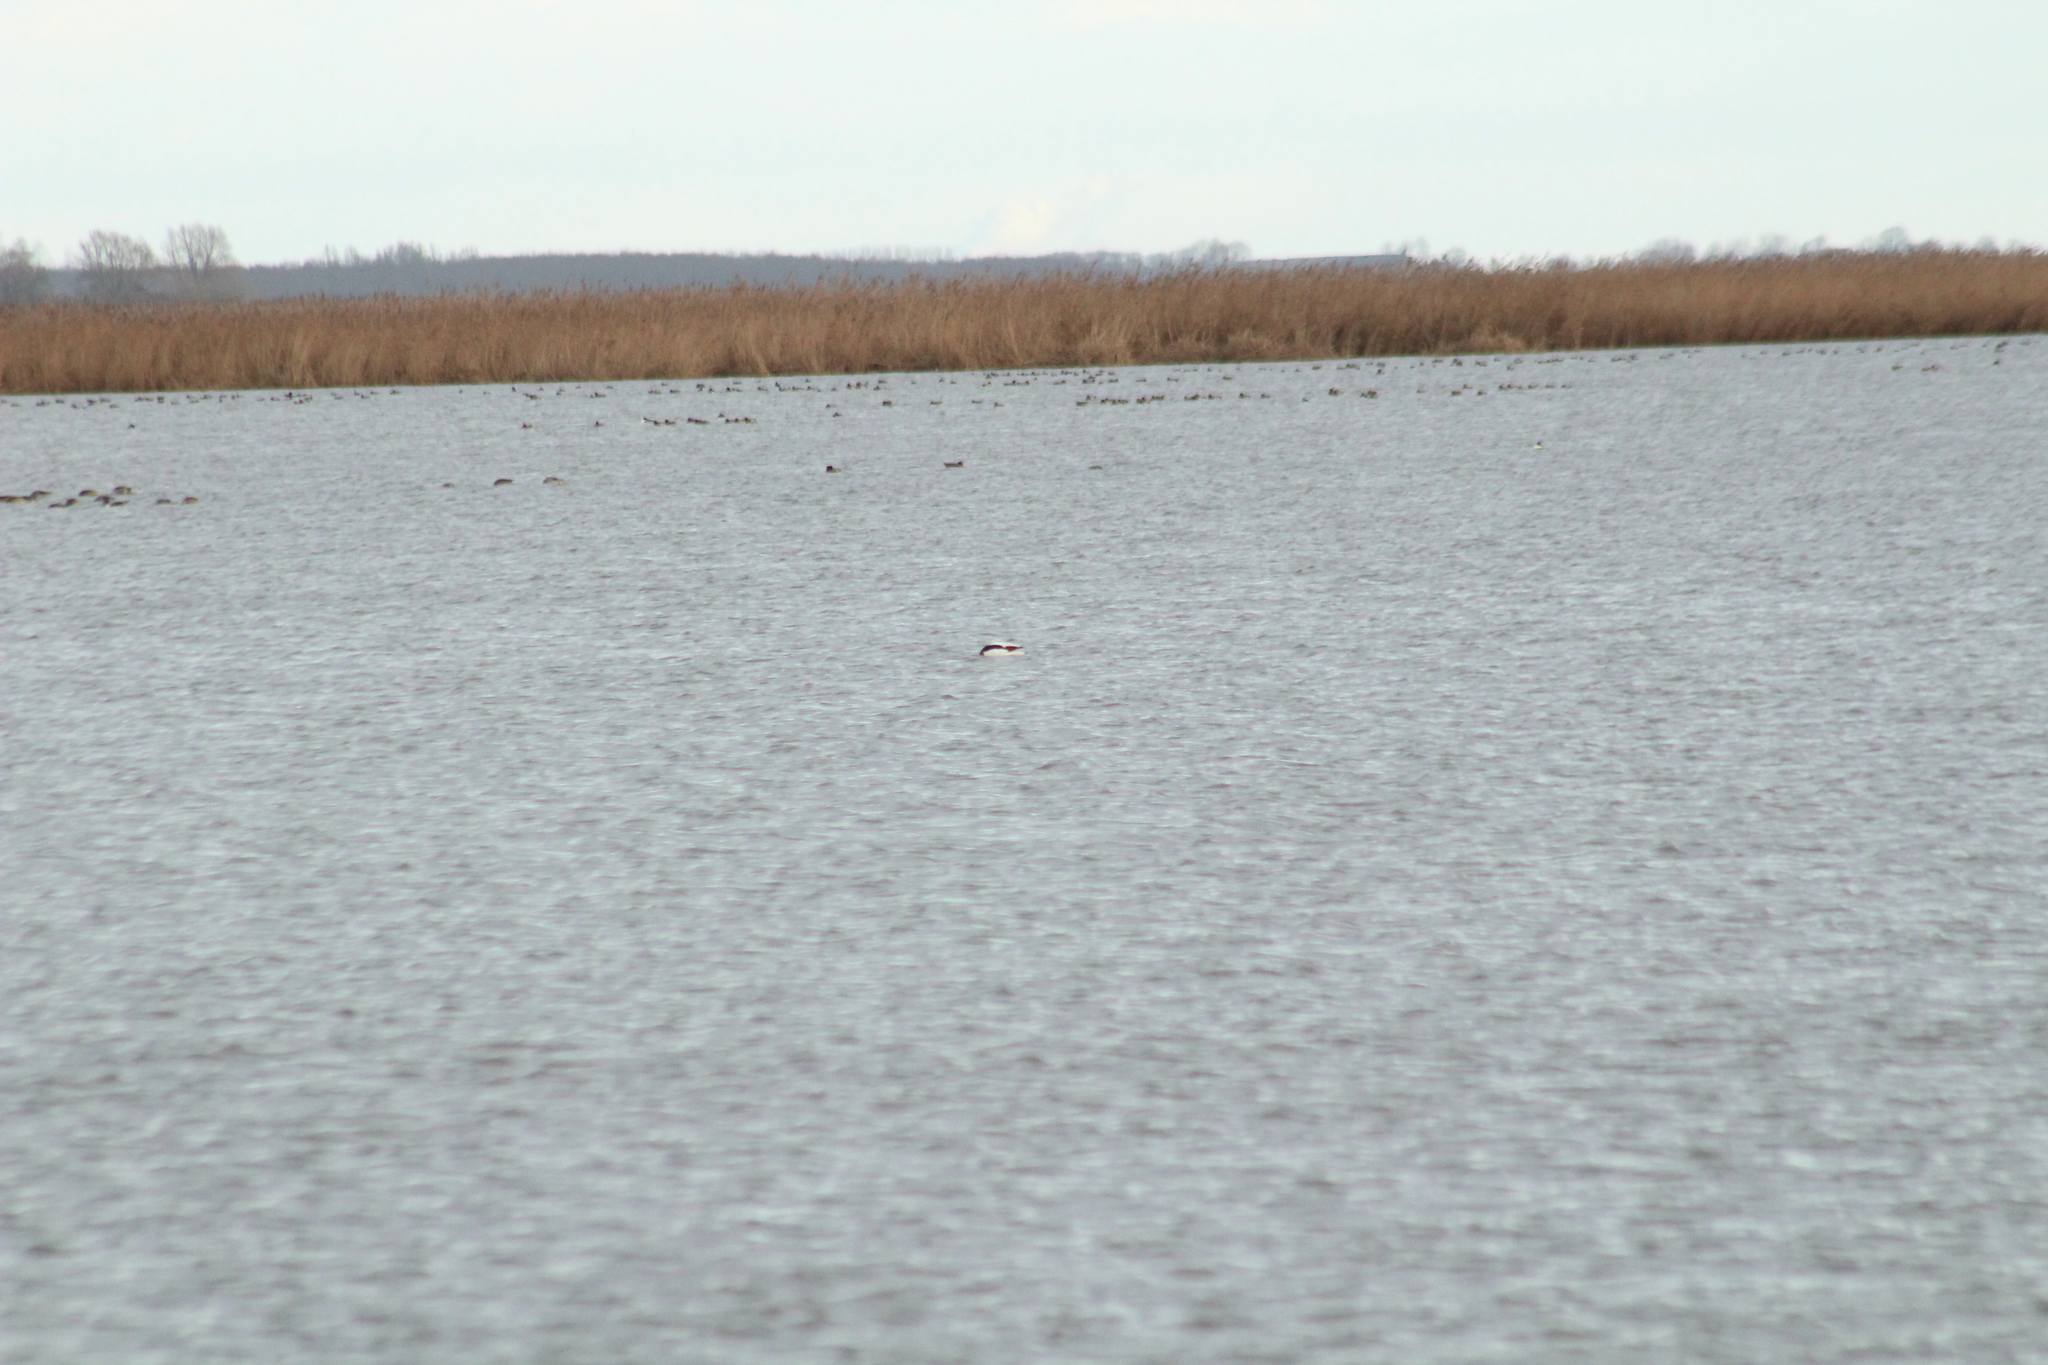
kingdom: Animalia
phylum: Chordata
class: Aves
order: Anseriformes
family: Anatidae
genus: Tadorna
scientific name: Tadorna tadorna
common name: Common shelduck
